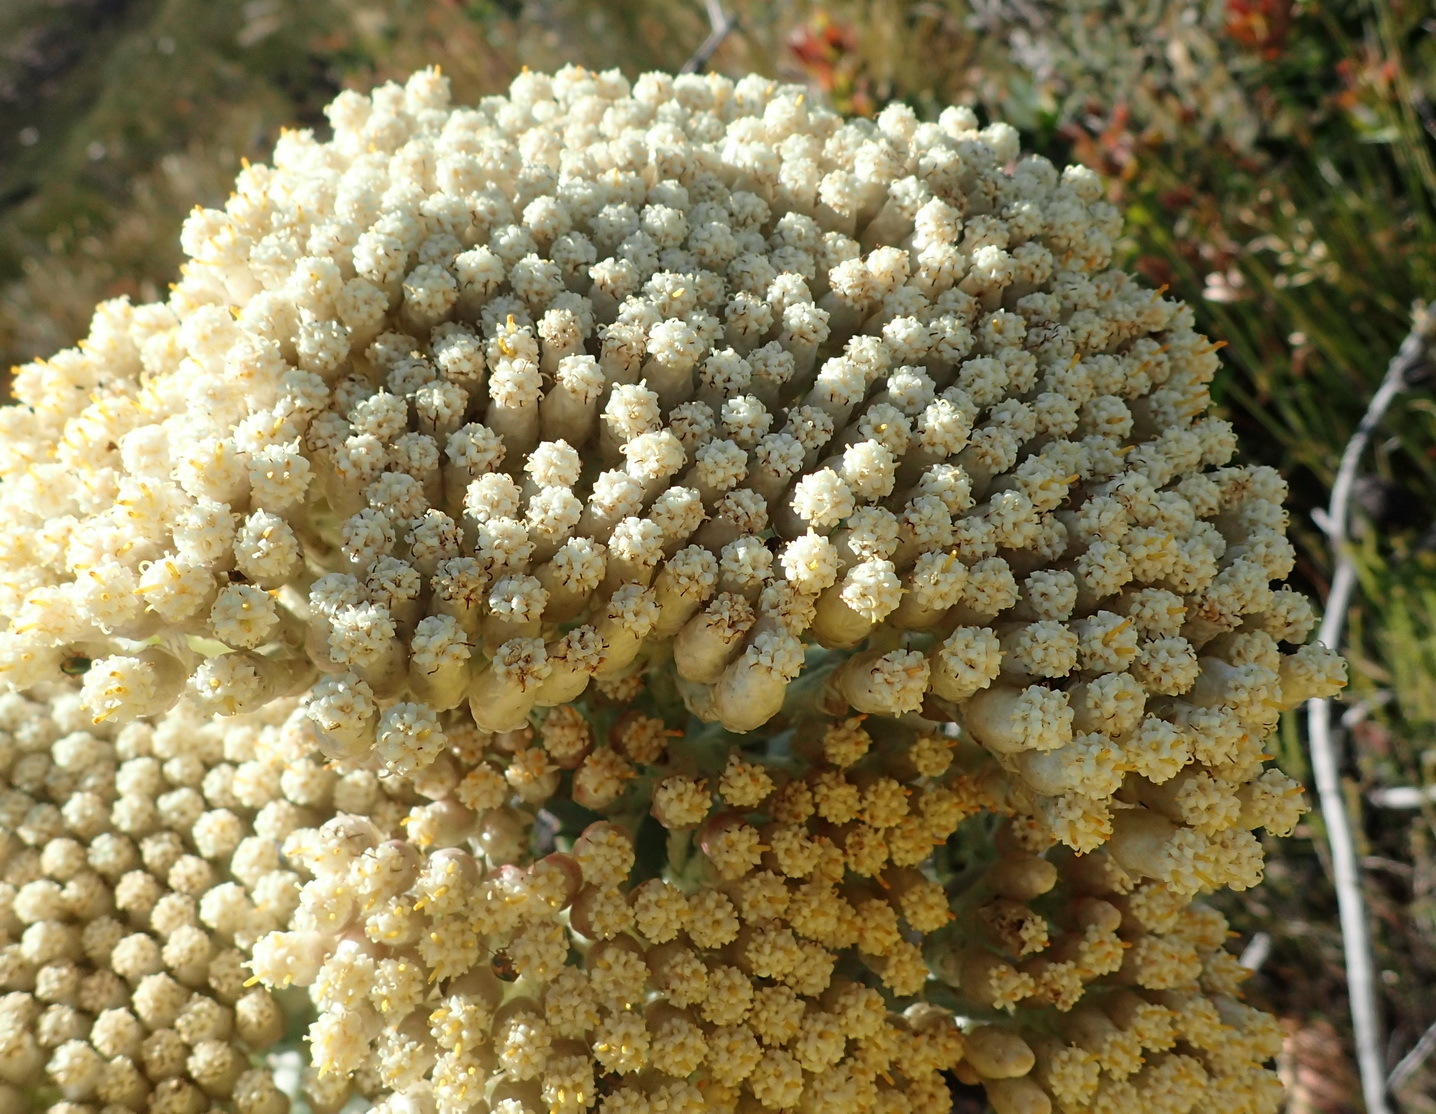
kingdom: Plantae
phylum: Tracheophyta
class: Magnoliopsida
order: Asterales
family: Asteraceae
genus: Syncarpha
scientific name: Syncarpha milleflora
